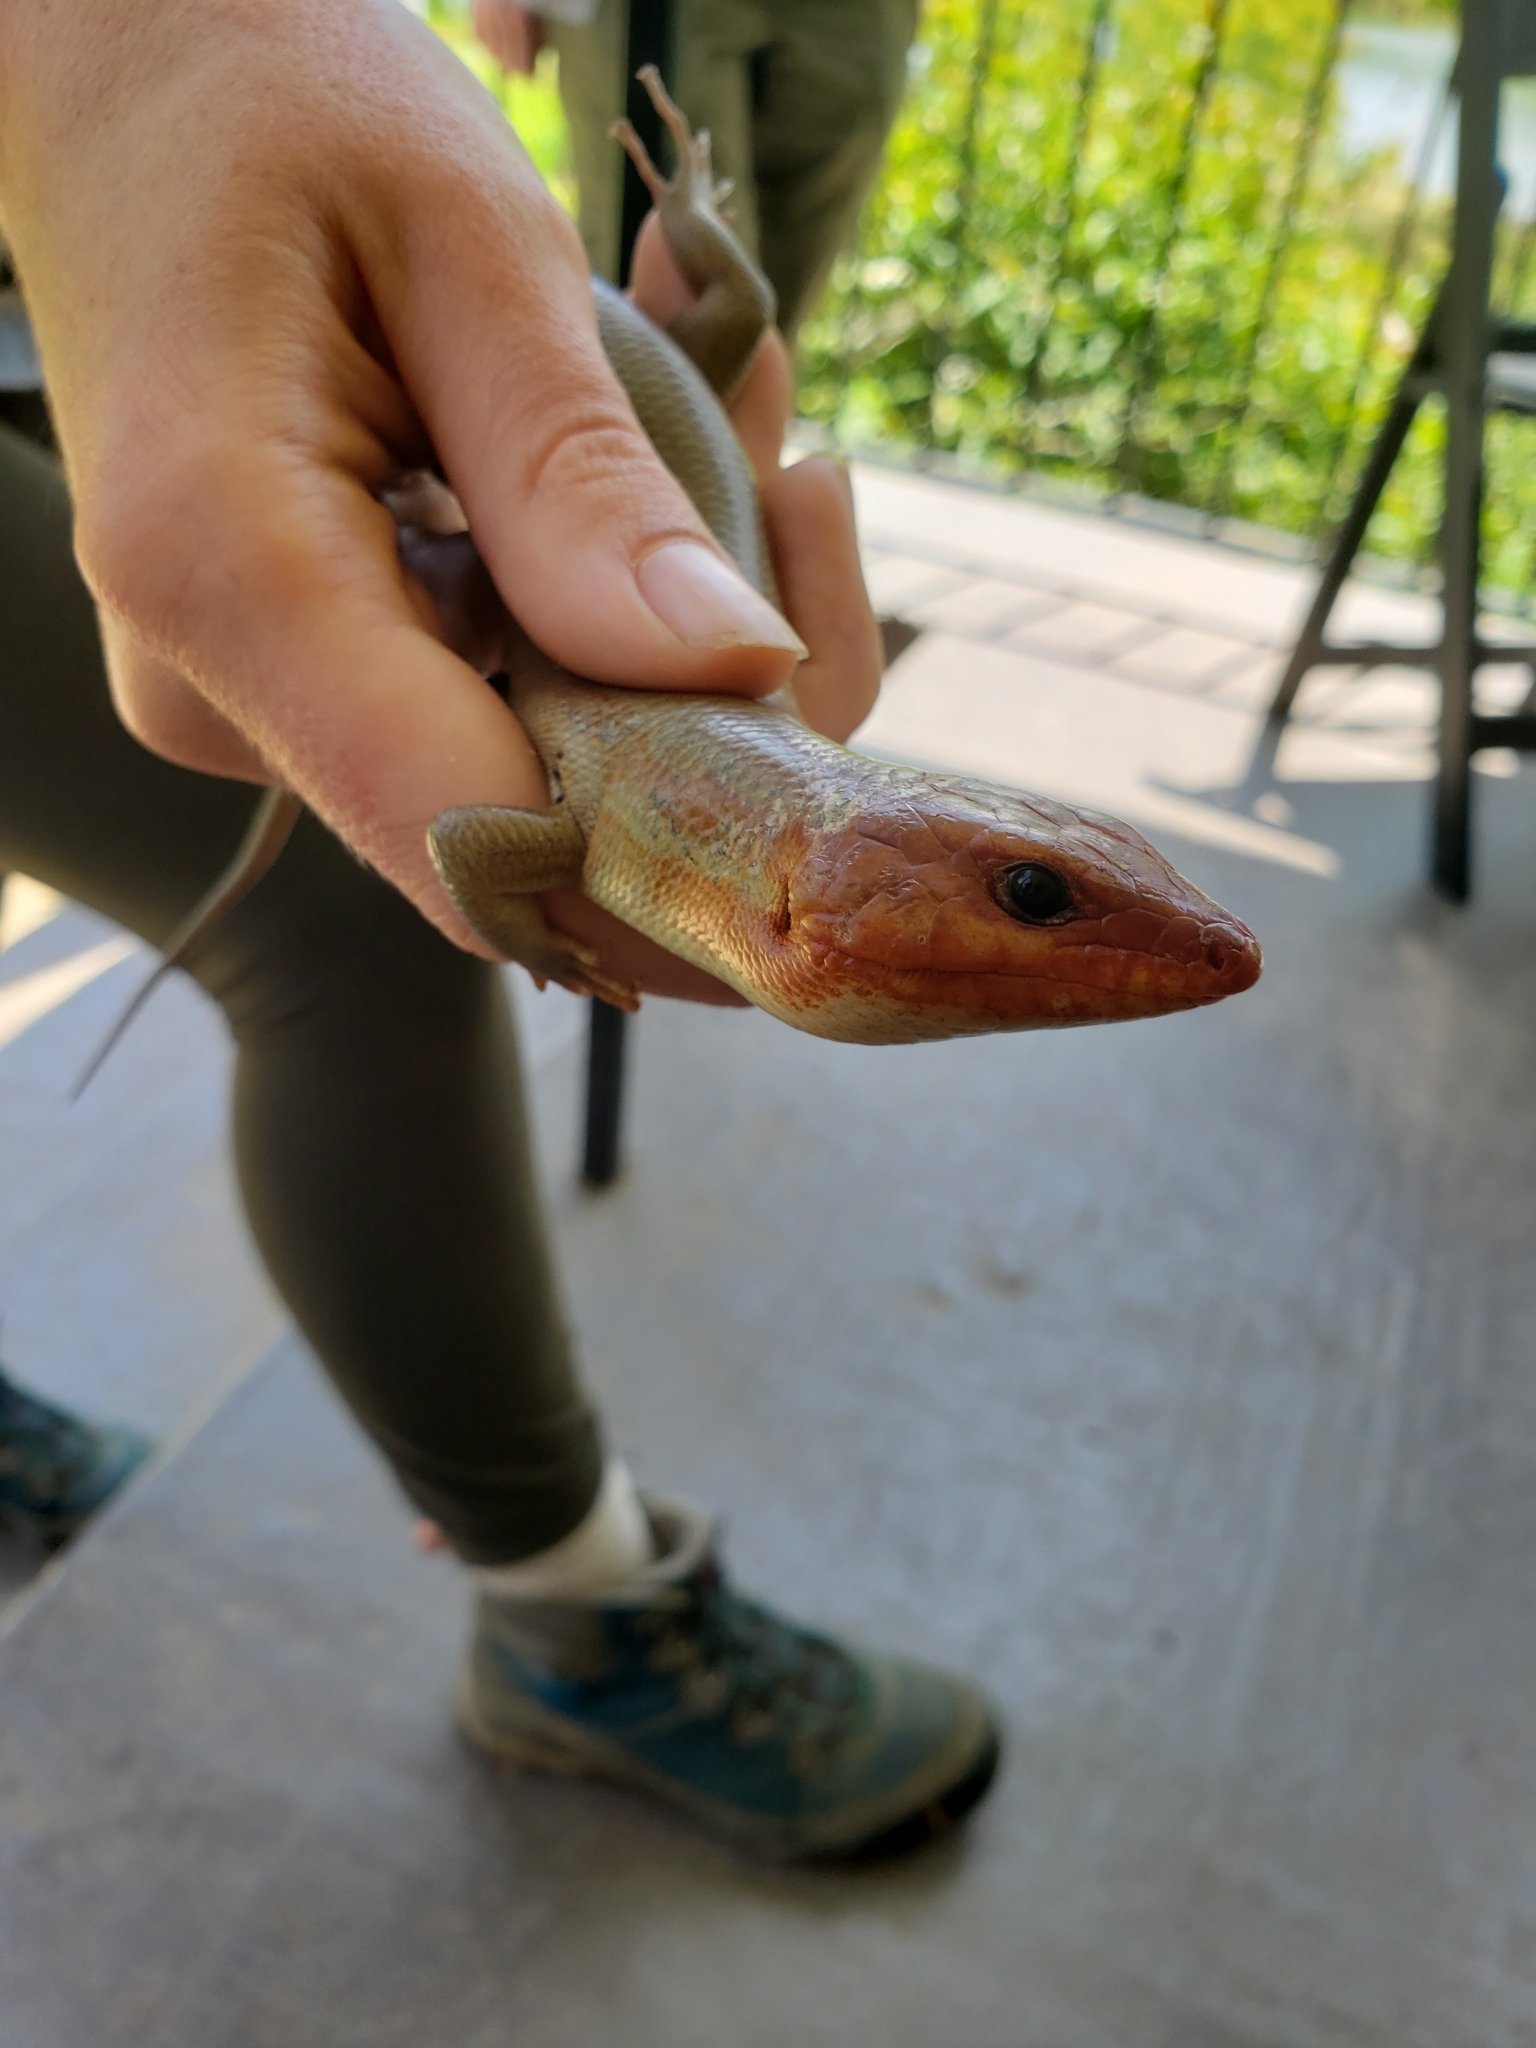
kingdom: Animalia
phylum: Chordata
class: Squamata
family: Scincidae
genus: Plestiodon
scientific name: Plestiodon laticeps
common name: Broadhead skink
